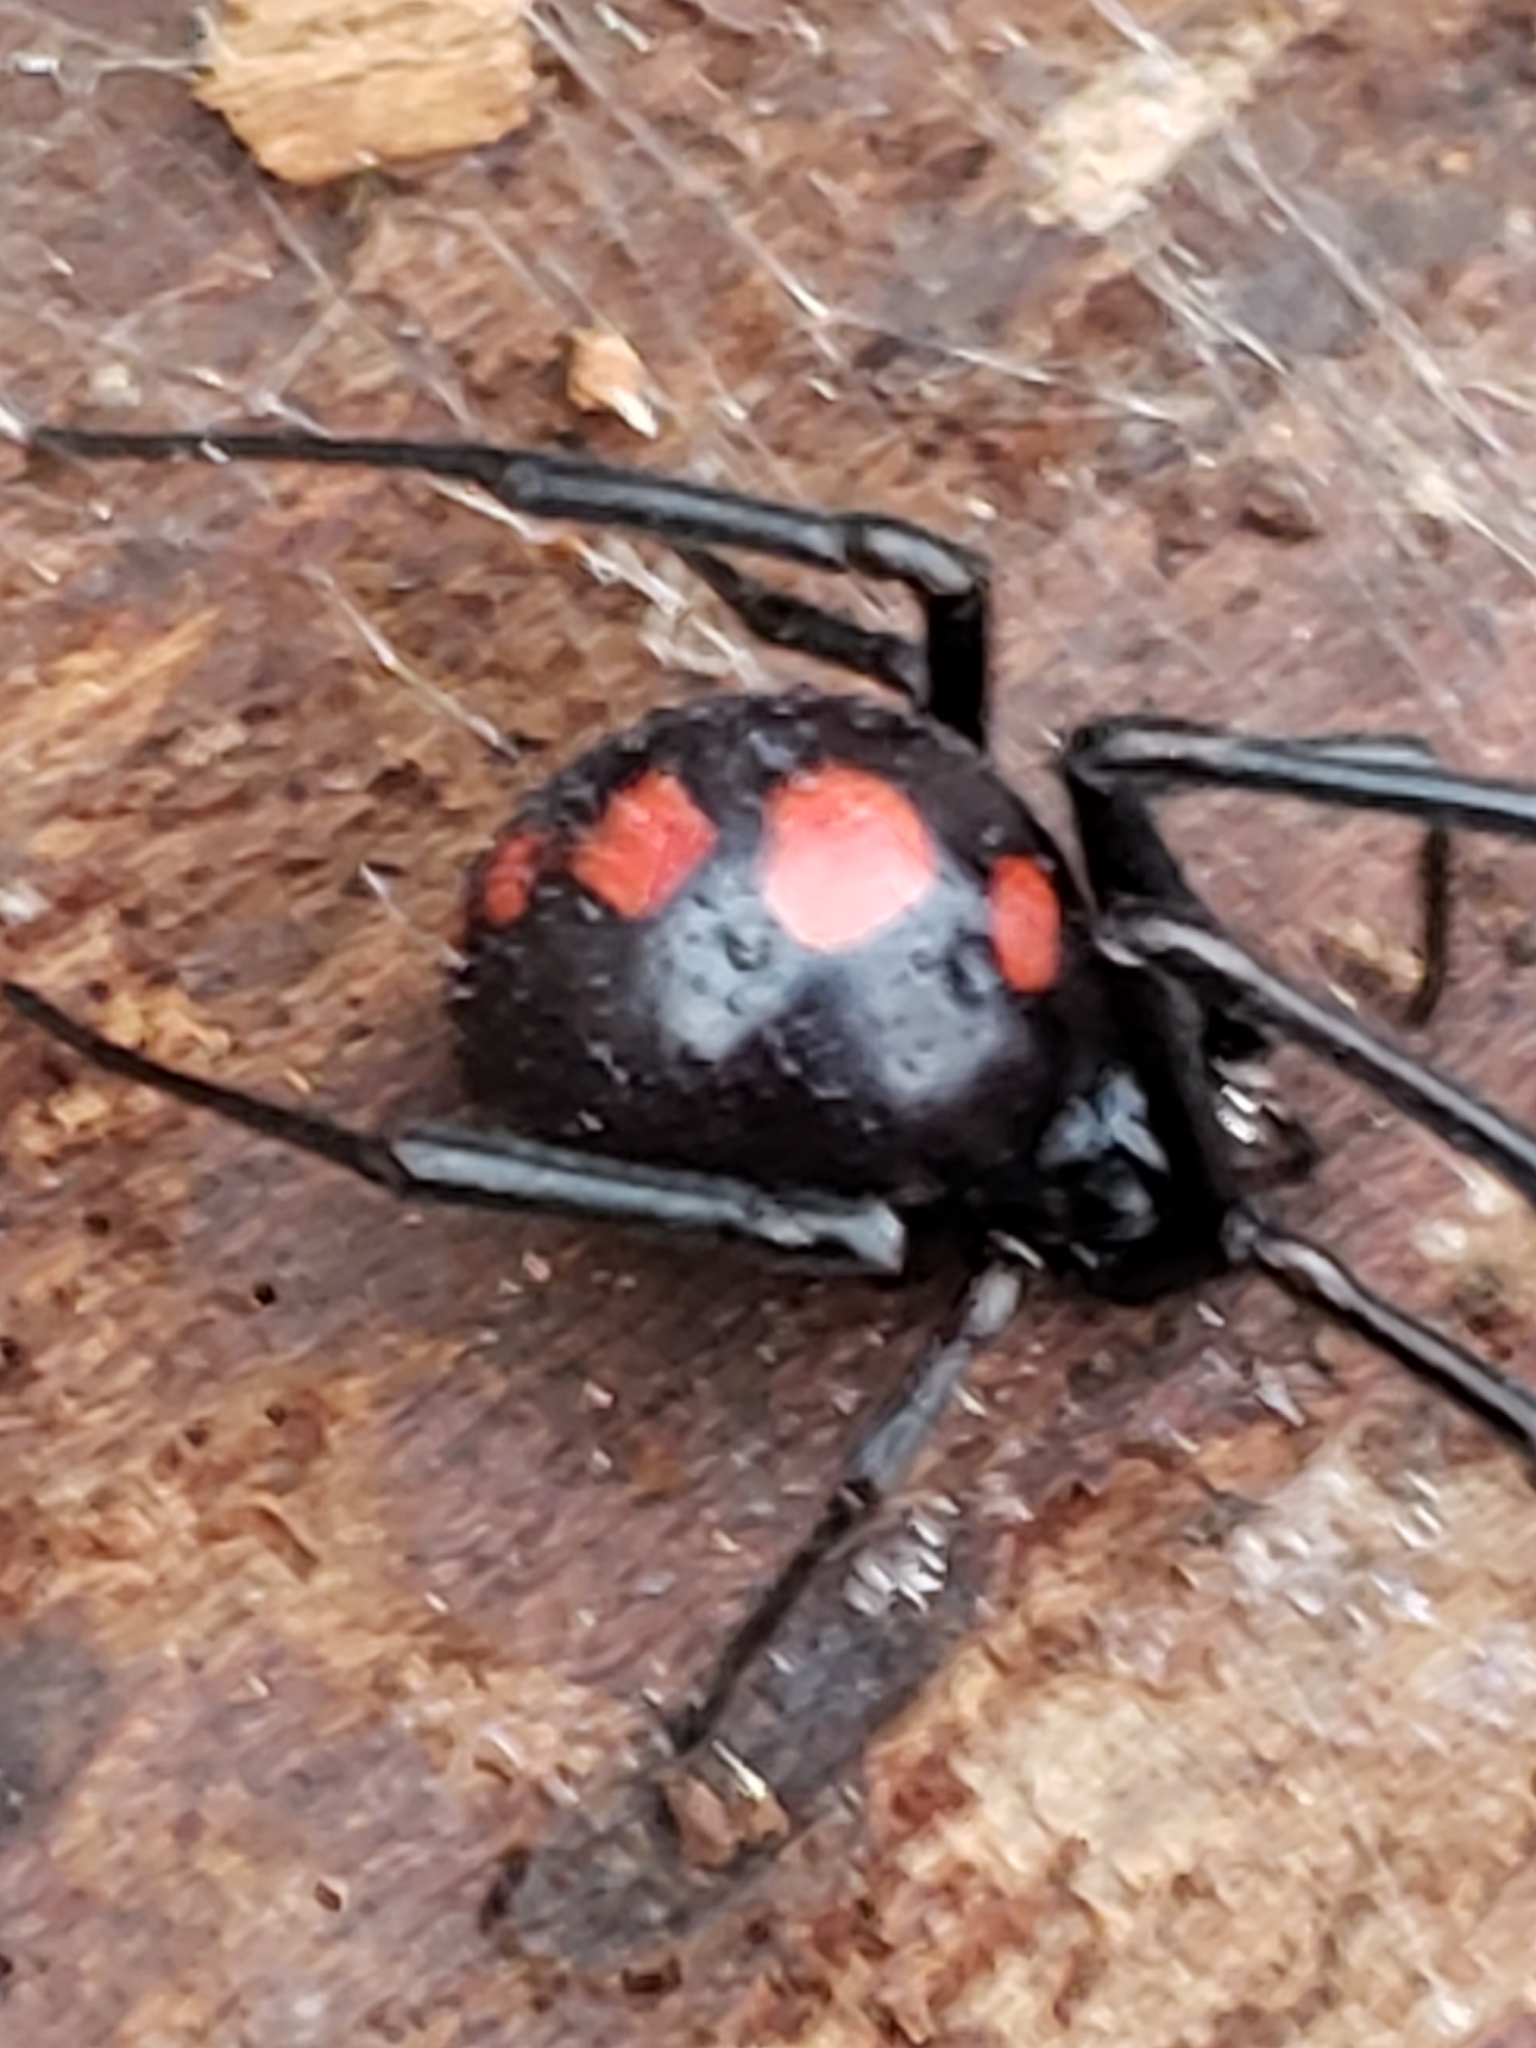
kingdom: Animalia
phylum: Arthropoda
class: Arachnida
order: Araneae
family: Theridiidae
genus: Latrodectus
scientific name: Latrodectus variolus
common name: Northern black widow
